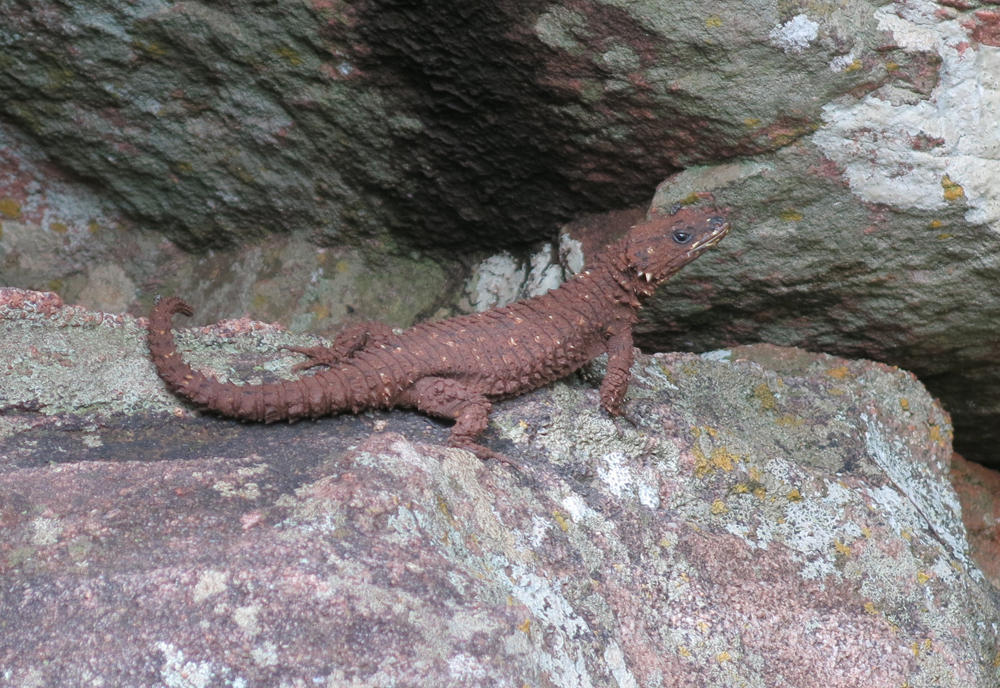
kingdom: Animalia
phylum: Chordata
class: Squamata
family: Cordylidae
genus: Smaug
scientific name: Smaug depressus
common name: Flat dragon lizard
